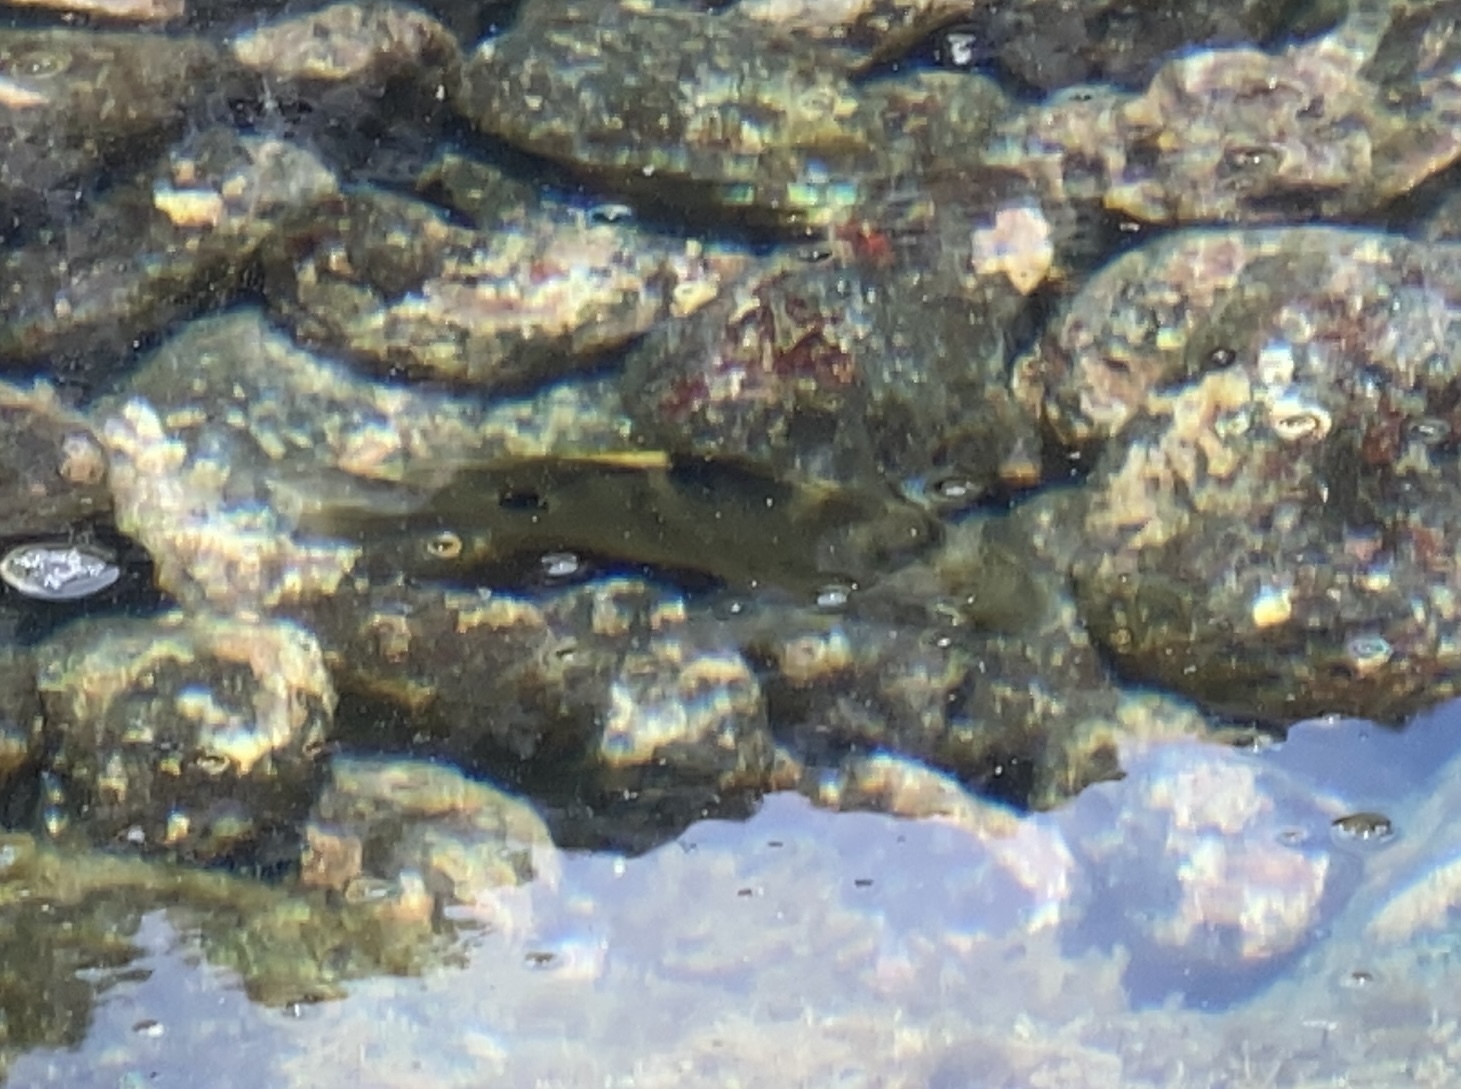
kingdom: Animalia
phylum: Chordata
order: Perciformes
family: Pomacentridae
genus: Abudefduf
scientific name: Abudefduf sordidus
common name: Blackspot sergeant
